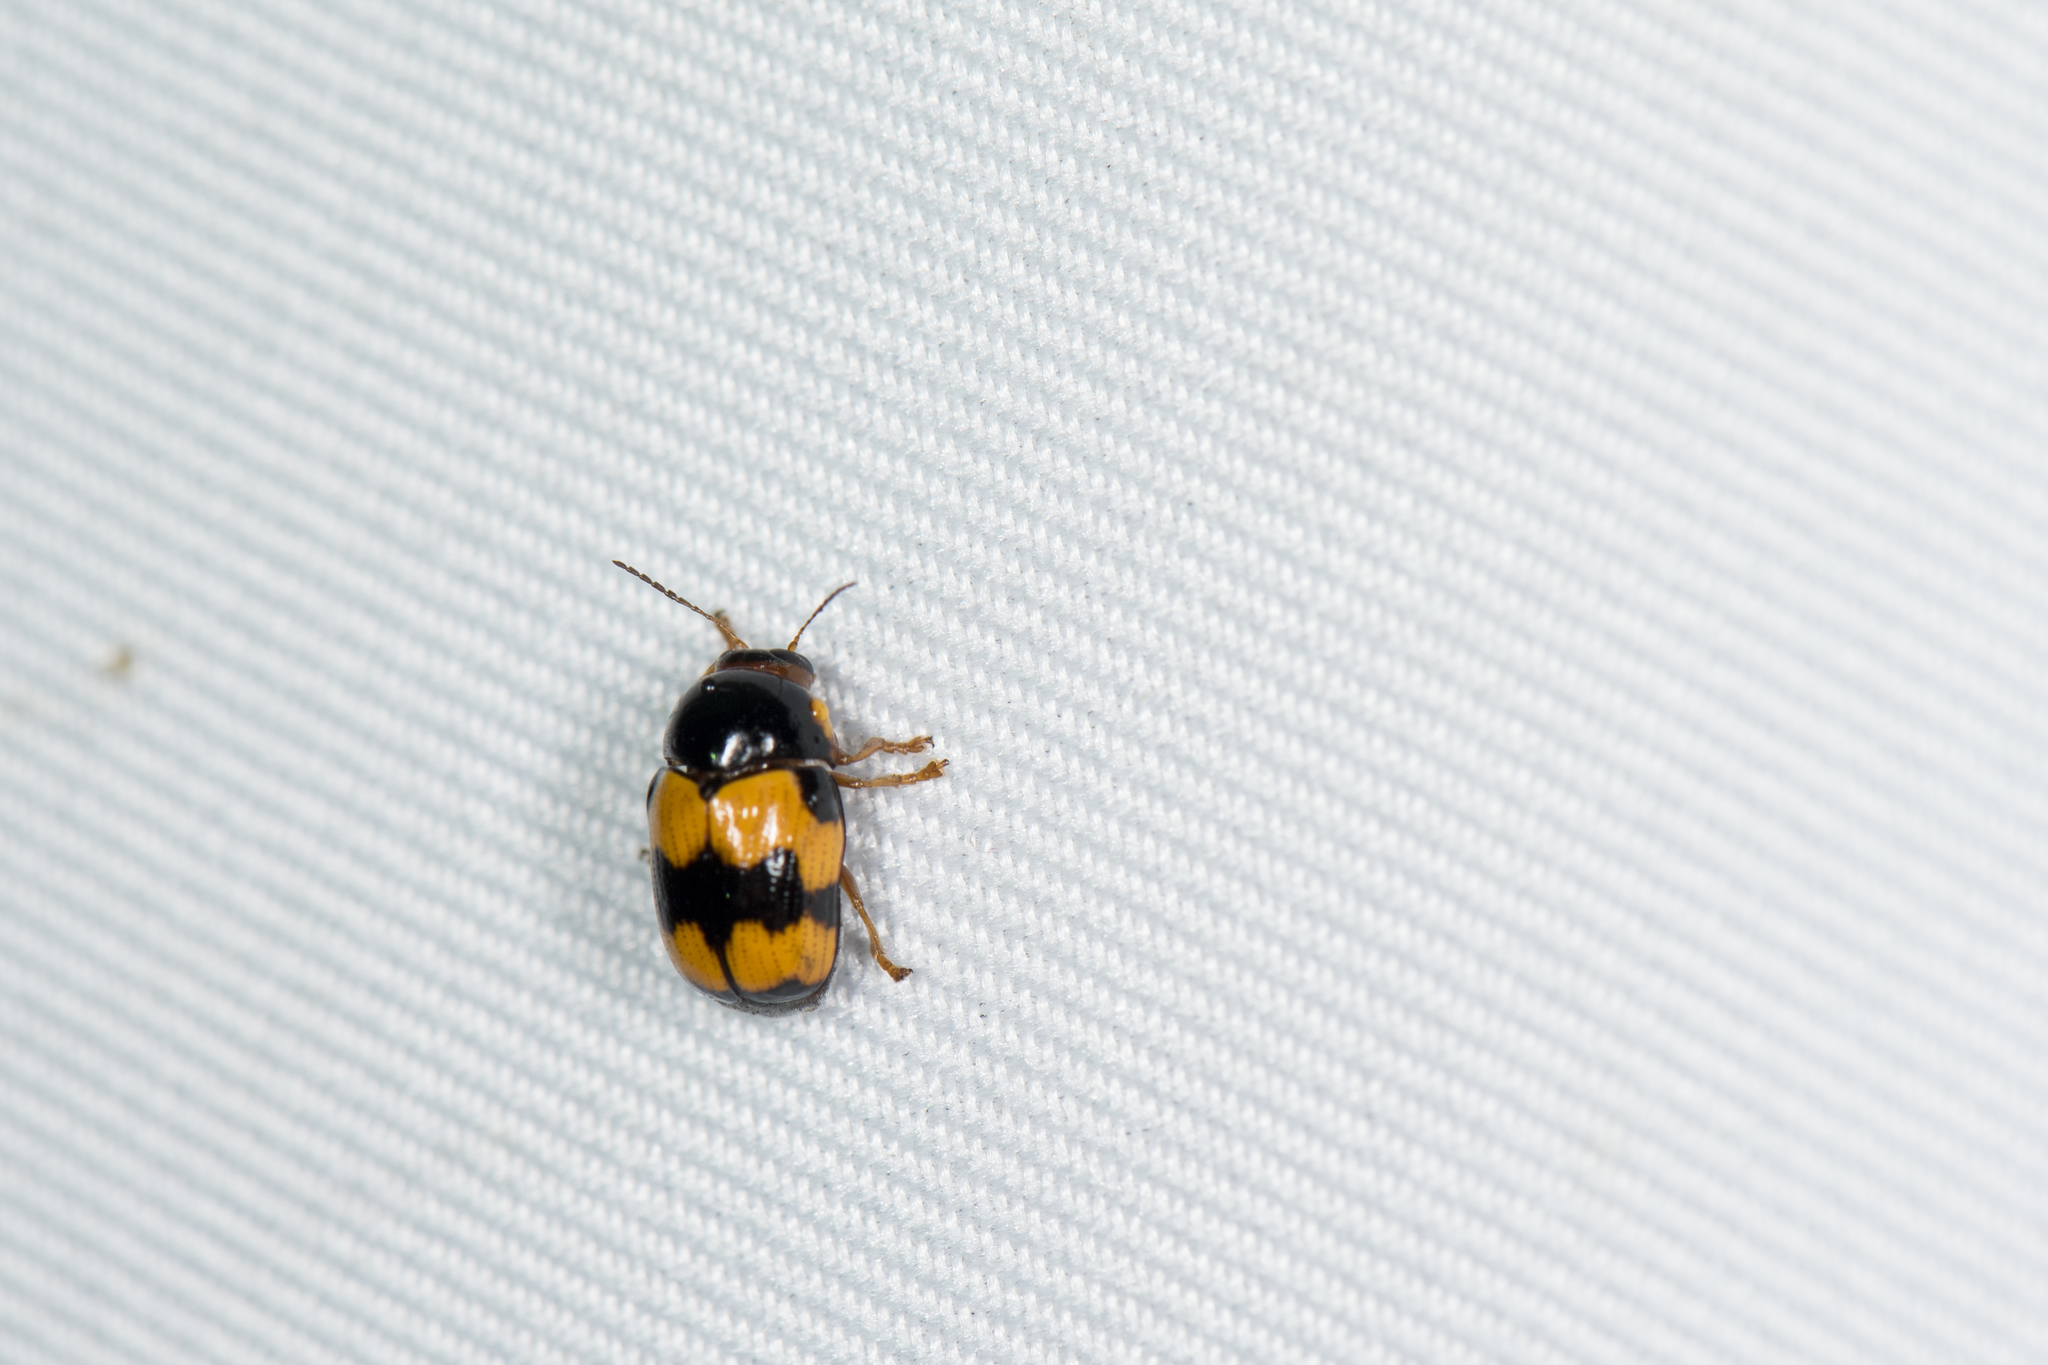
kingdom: Animalia
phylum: Arthropoda
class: Insecta
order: Coleoptera
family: Chrysomelidae
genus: Cryptocephalus
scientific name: Cryptocephalus formosanus
